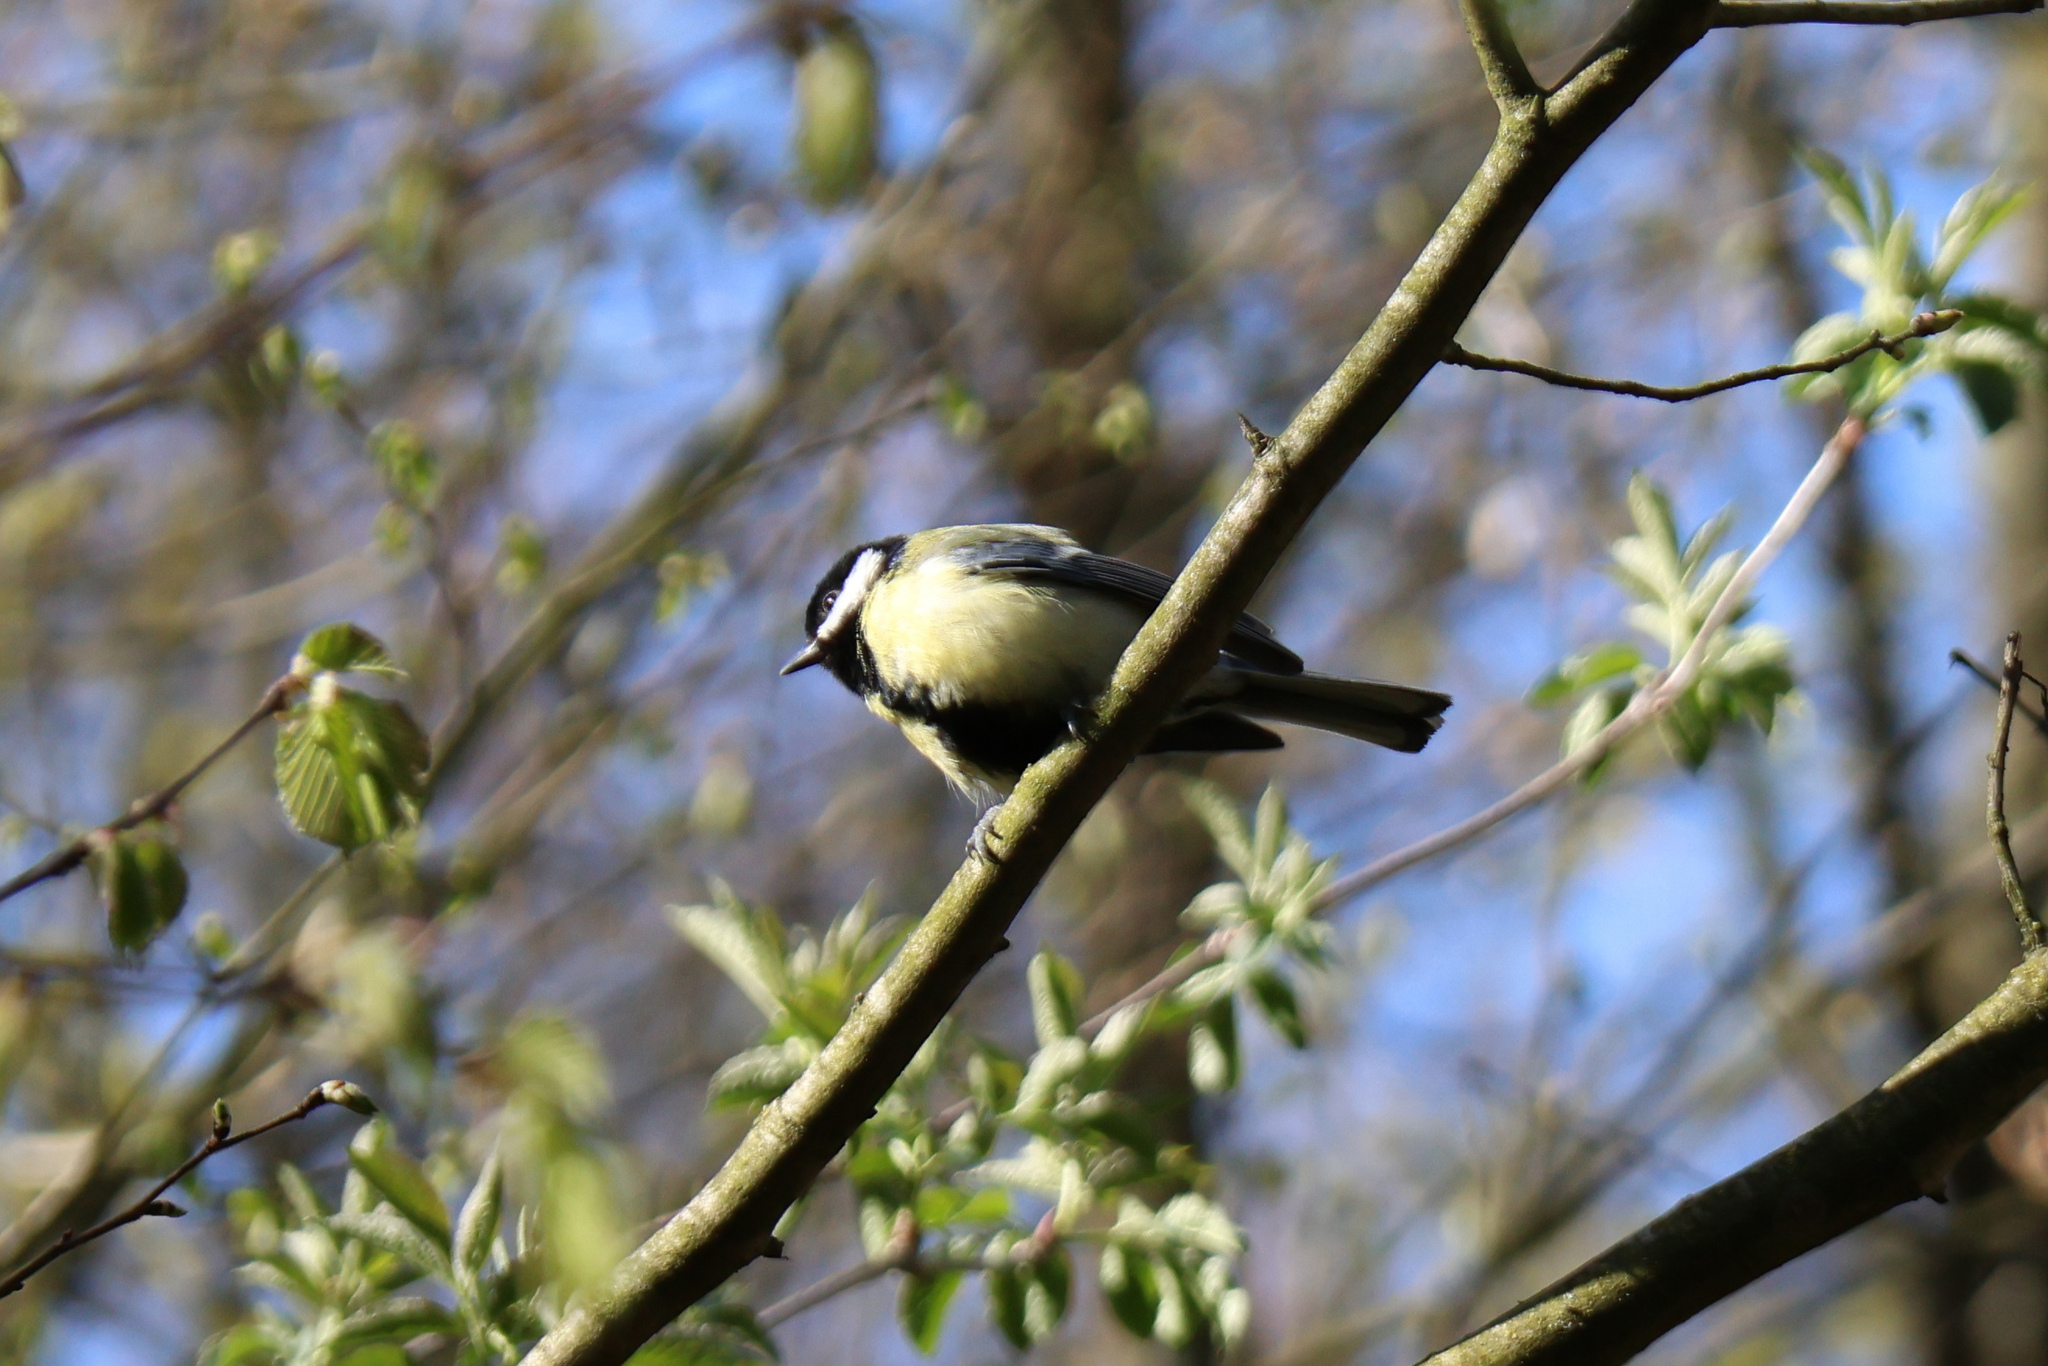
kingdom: Animalia
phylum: Chordata
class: Aves
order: Passeriformes
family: Paridae
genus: Parus
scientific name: Parus major
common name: Great tit
